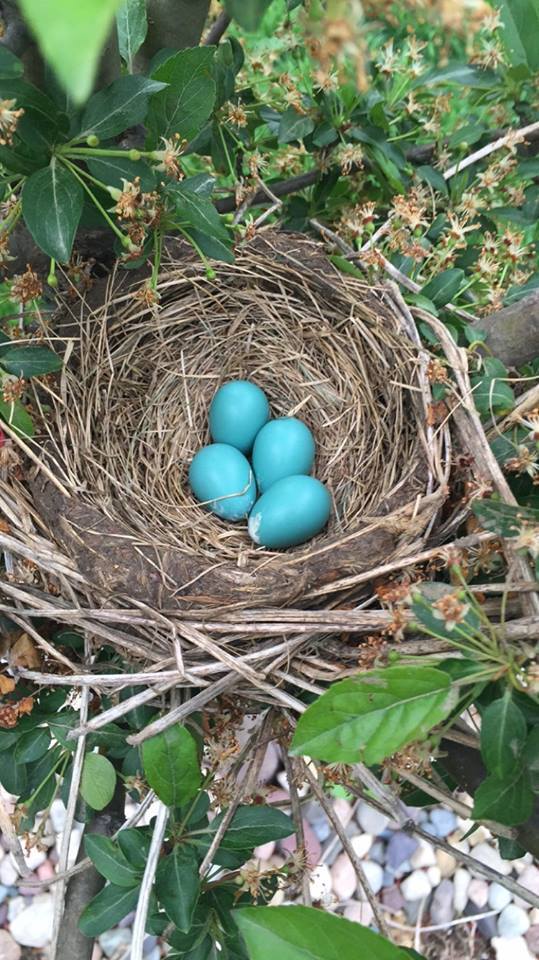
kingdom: Animalia
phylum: Chordata
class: Aves
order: Passeriformes
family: Turdidae
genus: Turdus
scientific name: Turdus migratorius
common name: American robin
